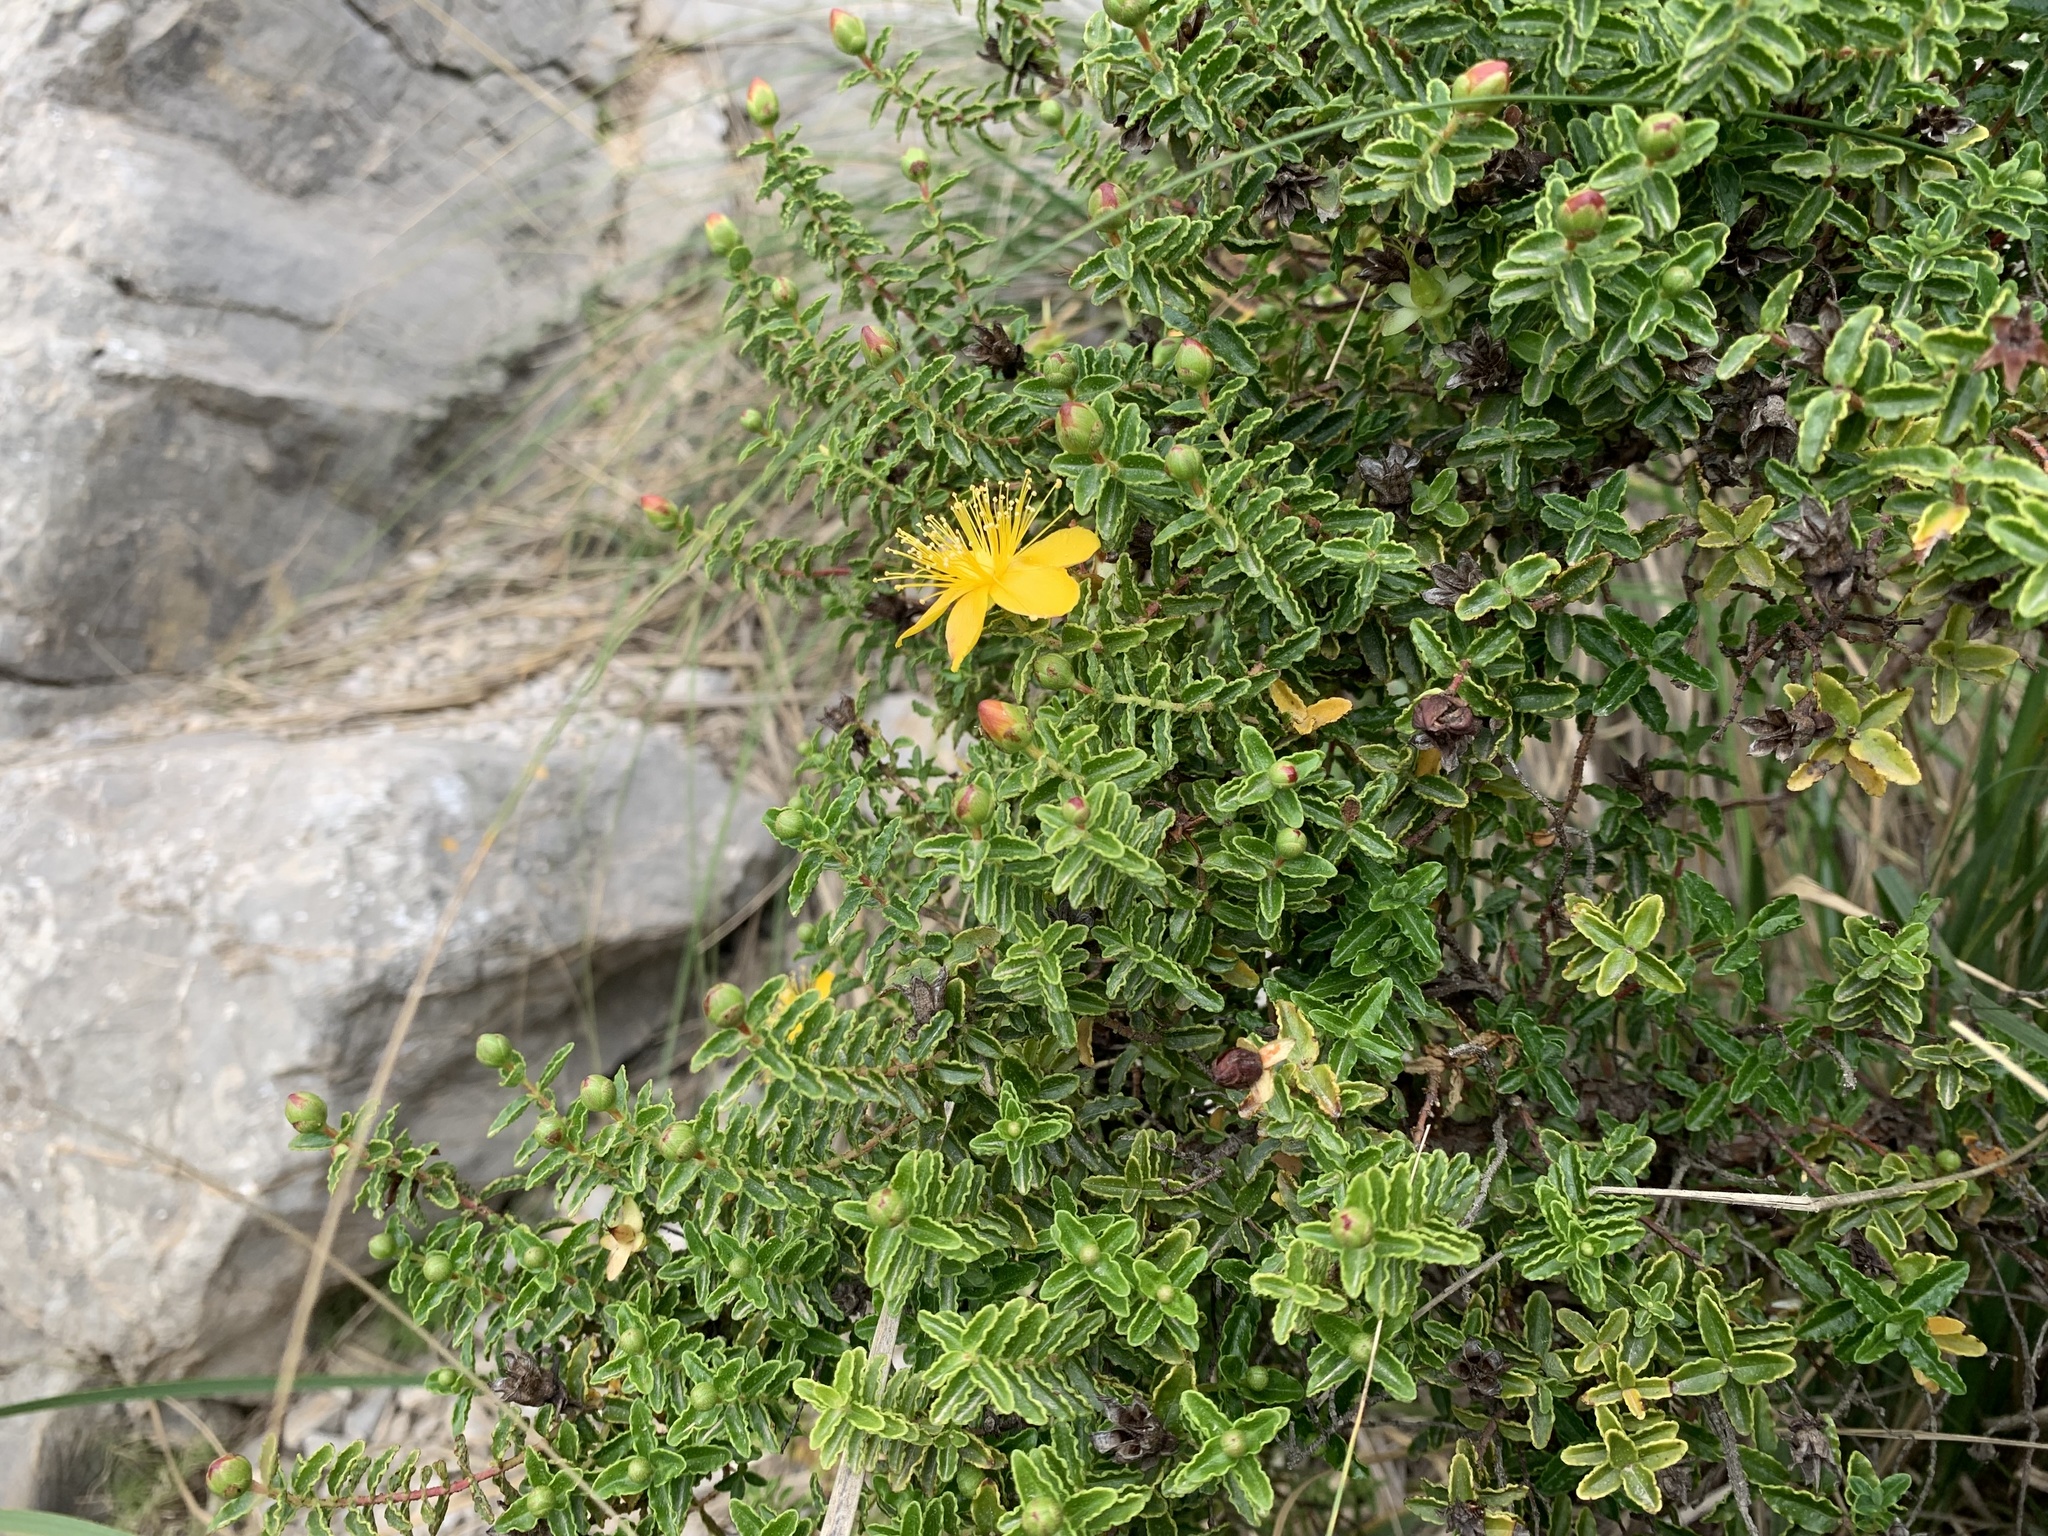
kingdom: Plantae
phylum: Tracheophyta
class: Magnoliopsida
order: Malpighiales
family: Hypericaceae
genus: Hypericum
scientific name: Hypericum balearicum
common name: Majorca st john's wort
